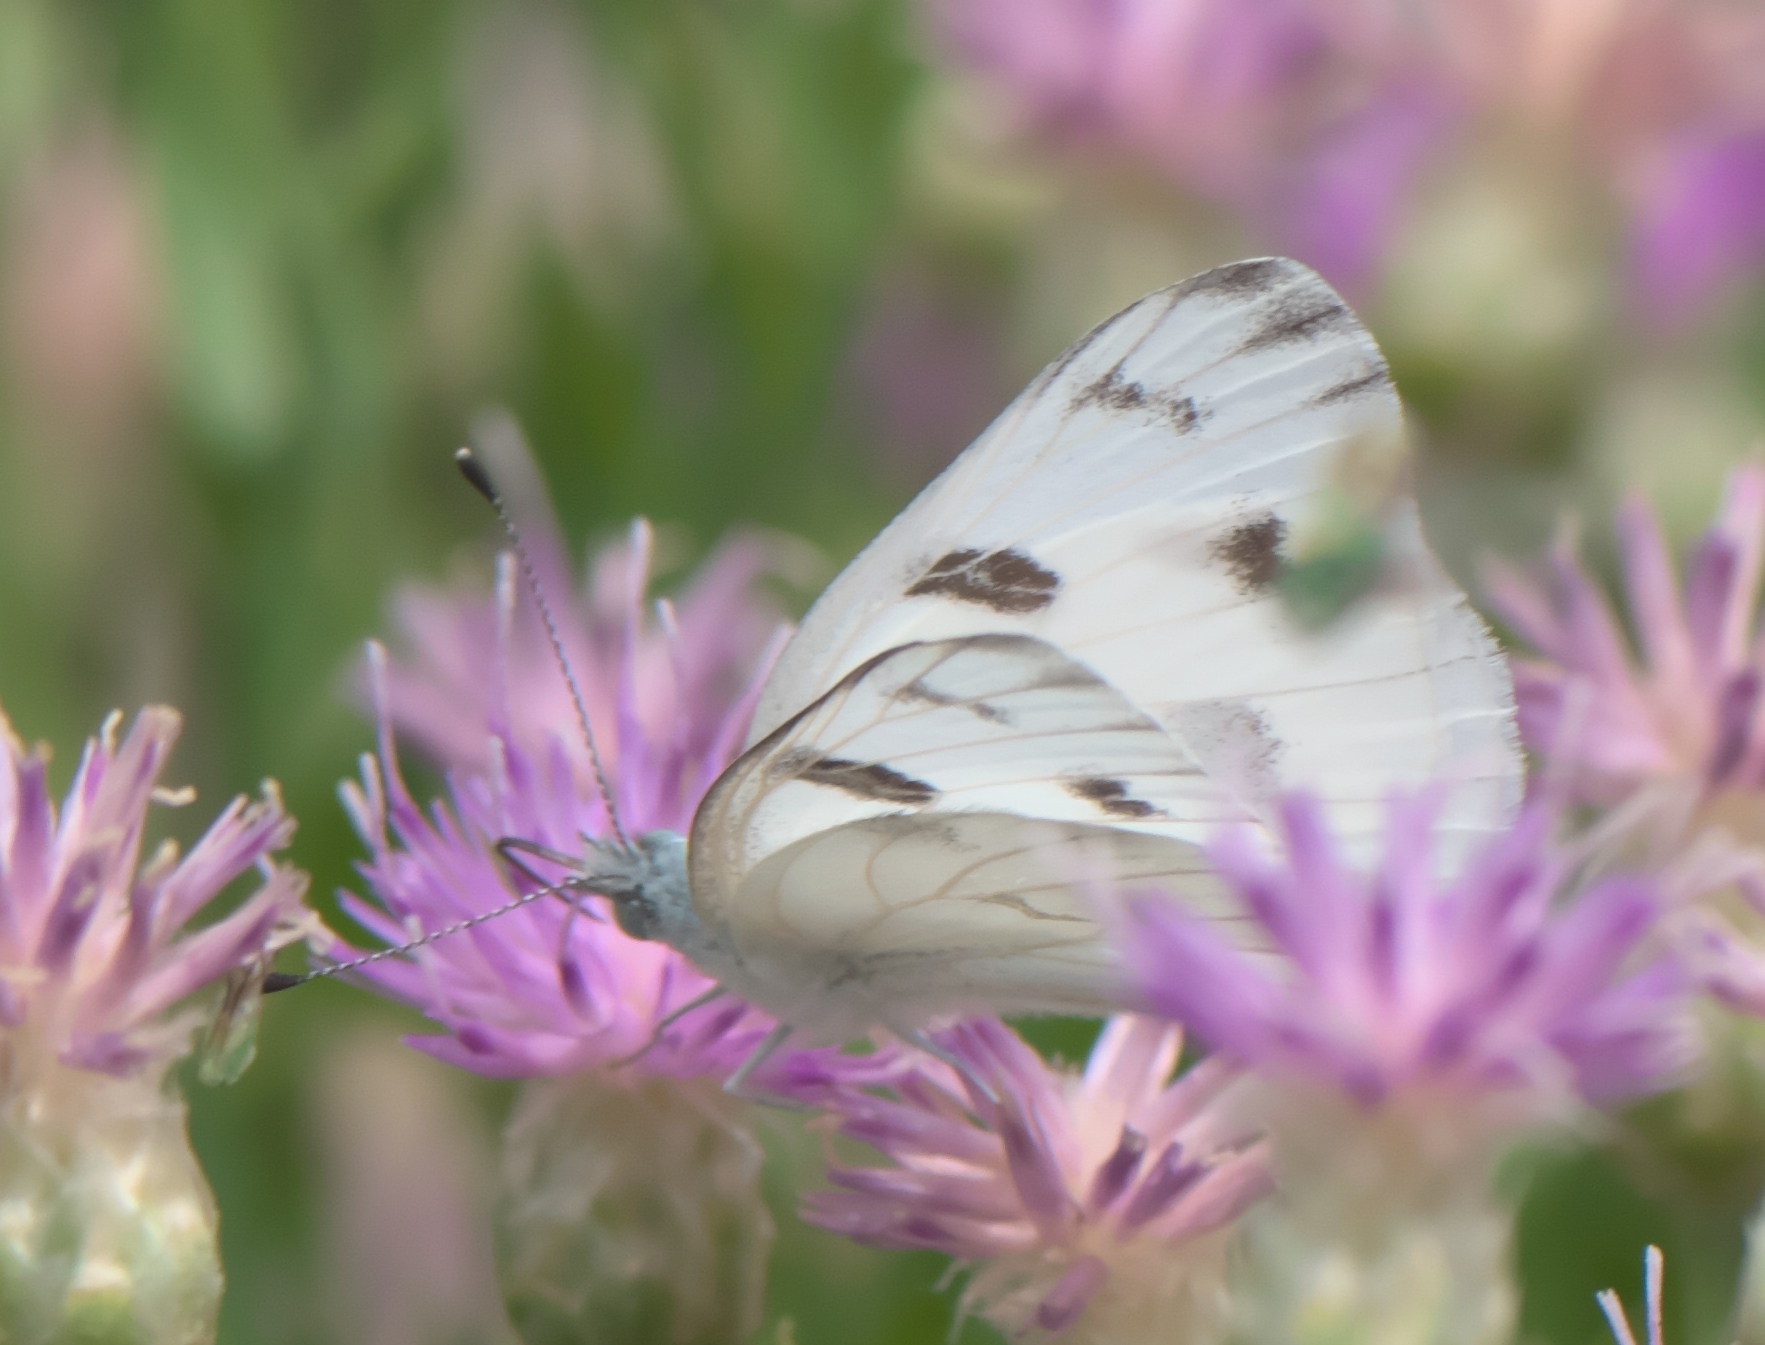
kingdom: Animalia
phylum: Arthropoda
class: Insecta
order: Lepidoptera
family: Pieridae
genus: Pontia
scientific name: Pontia protodice
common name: Checkered white
